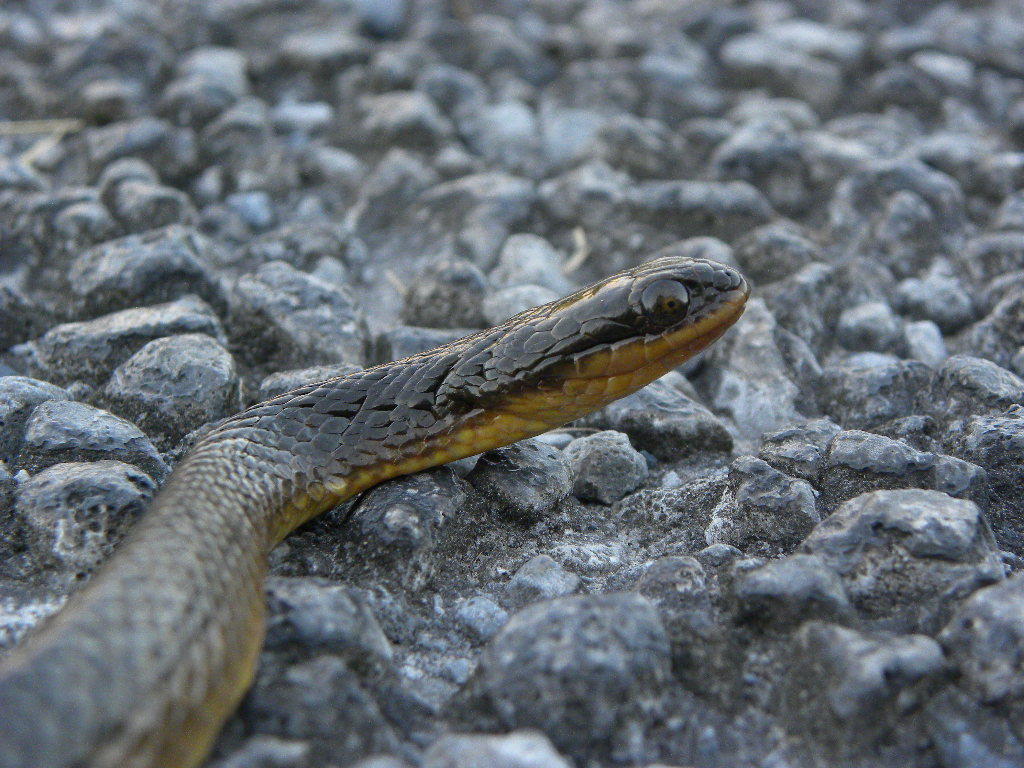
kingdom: Animalia
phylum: Chordata
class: Squamata
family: Colubridae
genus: Liodytes
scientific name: Liodytes alleni
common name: Striped crayfish snake
